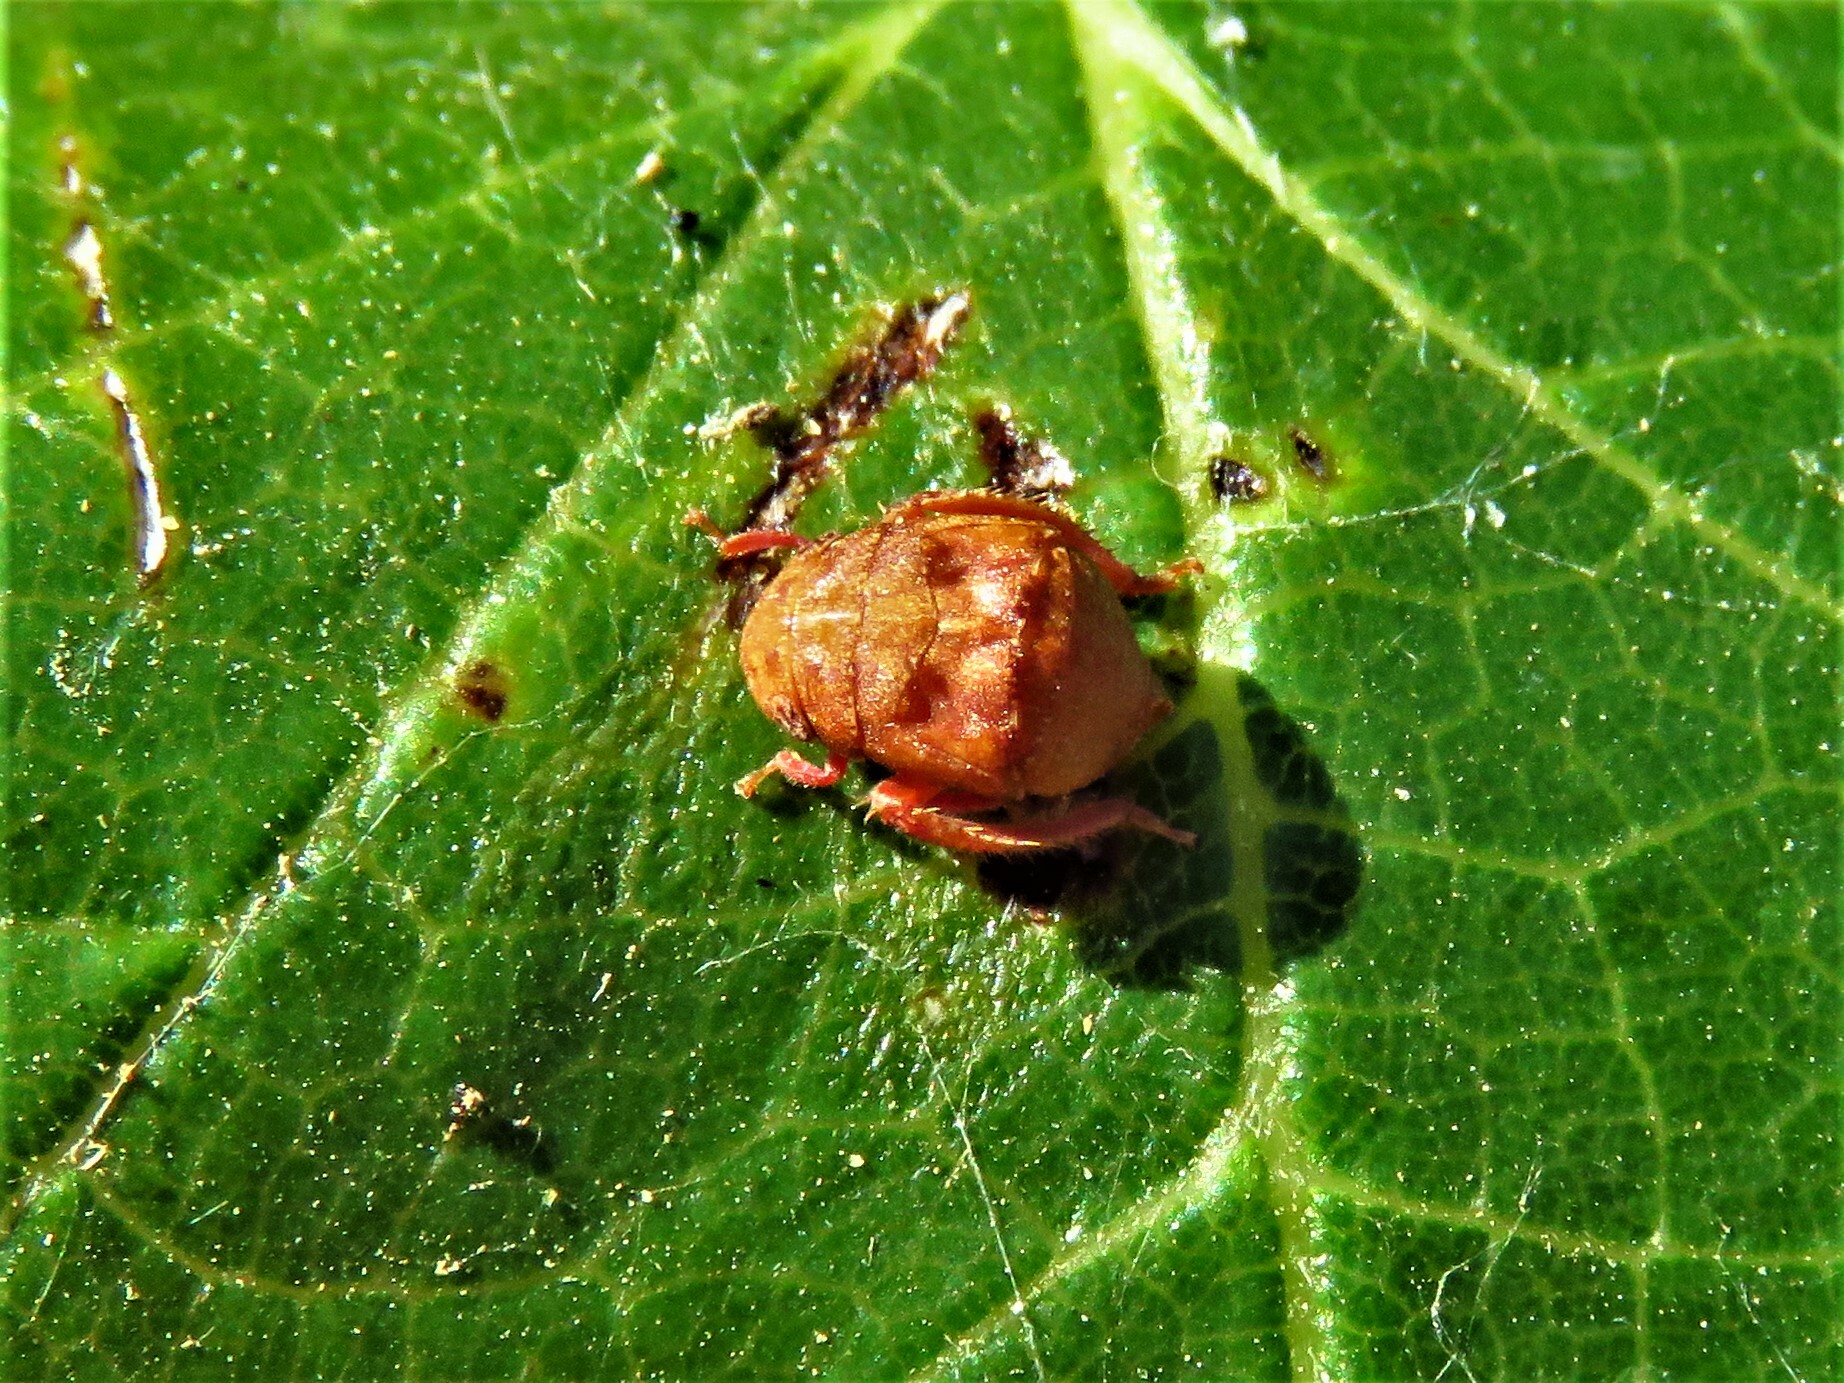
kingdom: Animalia
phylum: Arthropoda
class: Insecta
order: Hemiptera
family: Cicadellidae
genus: Penthimia
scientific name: Penthimia americana
